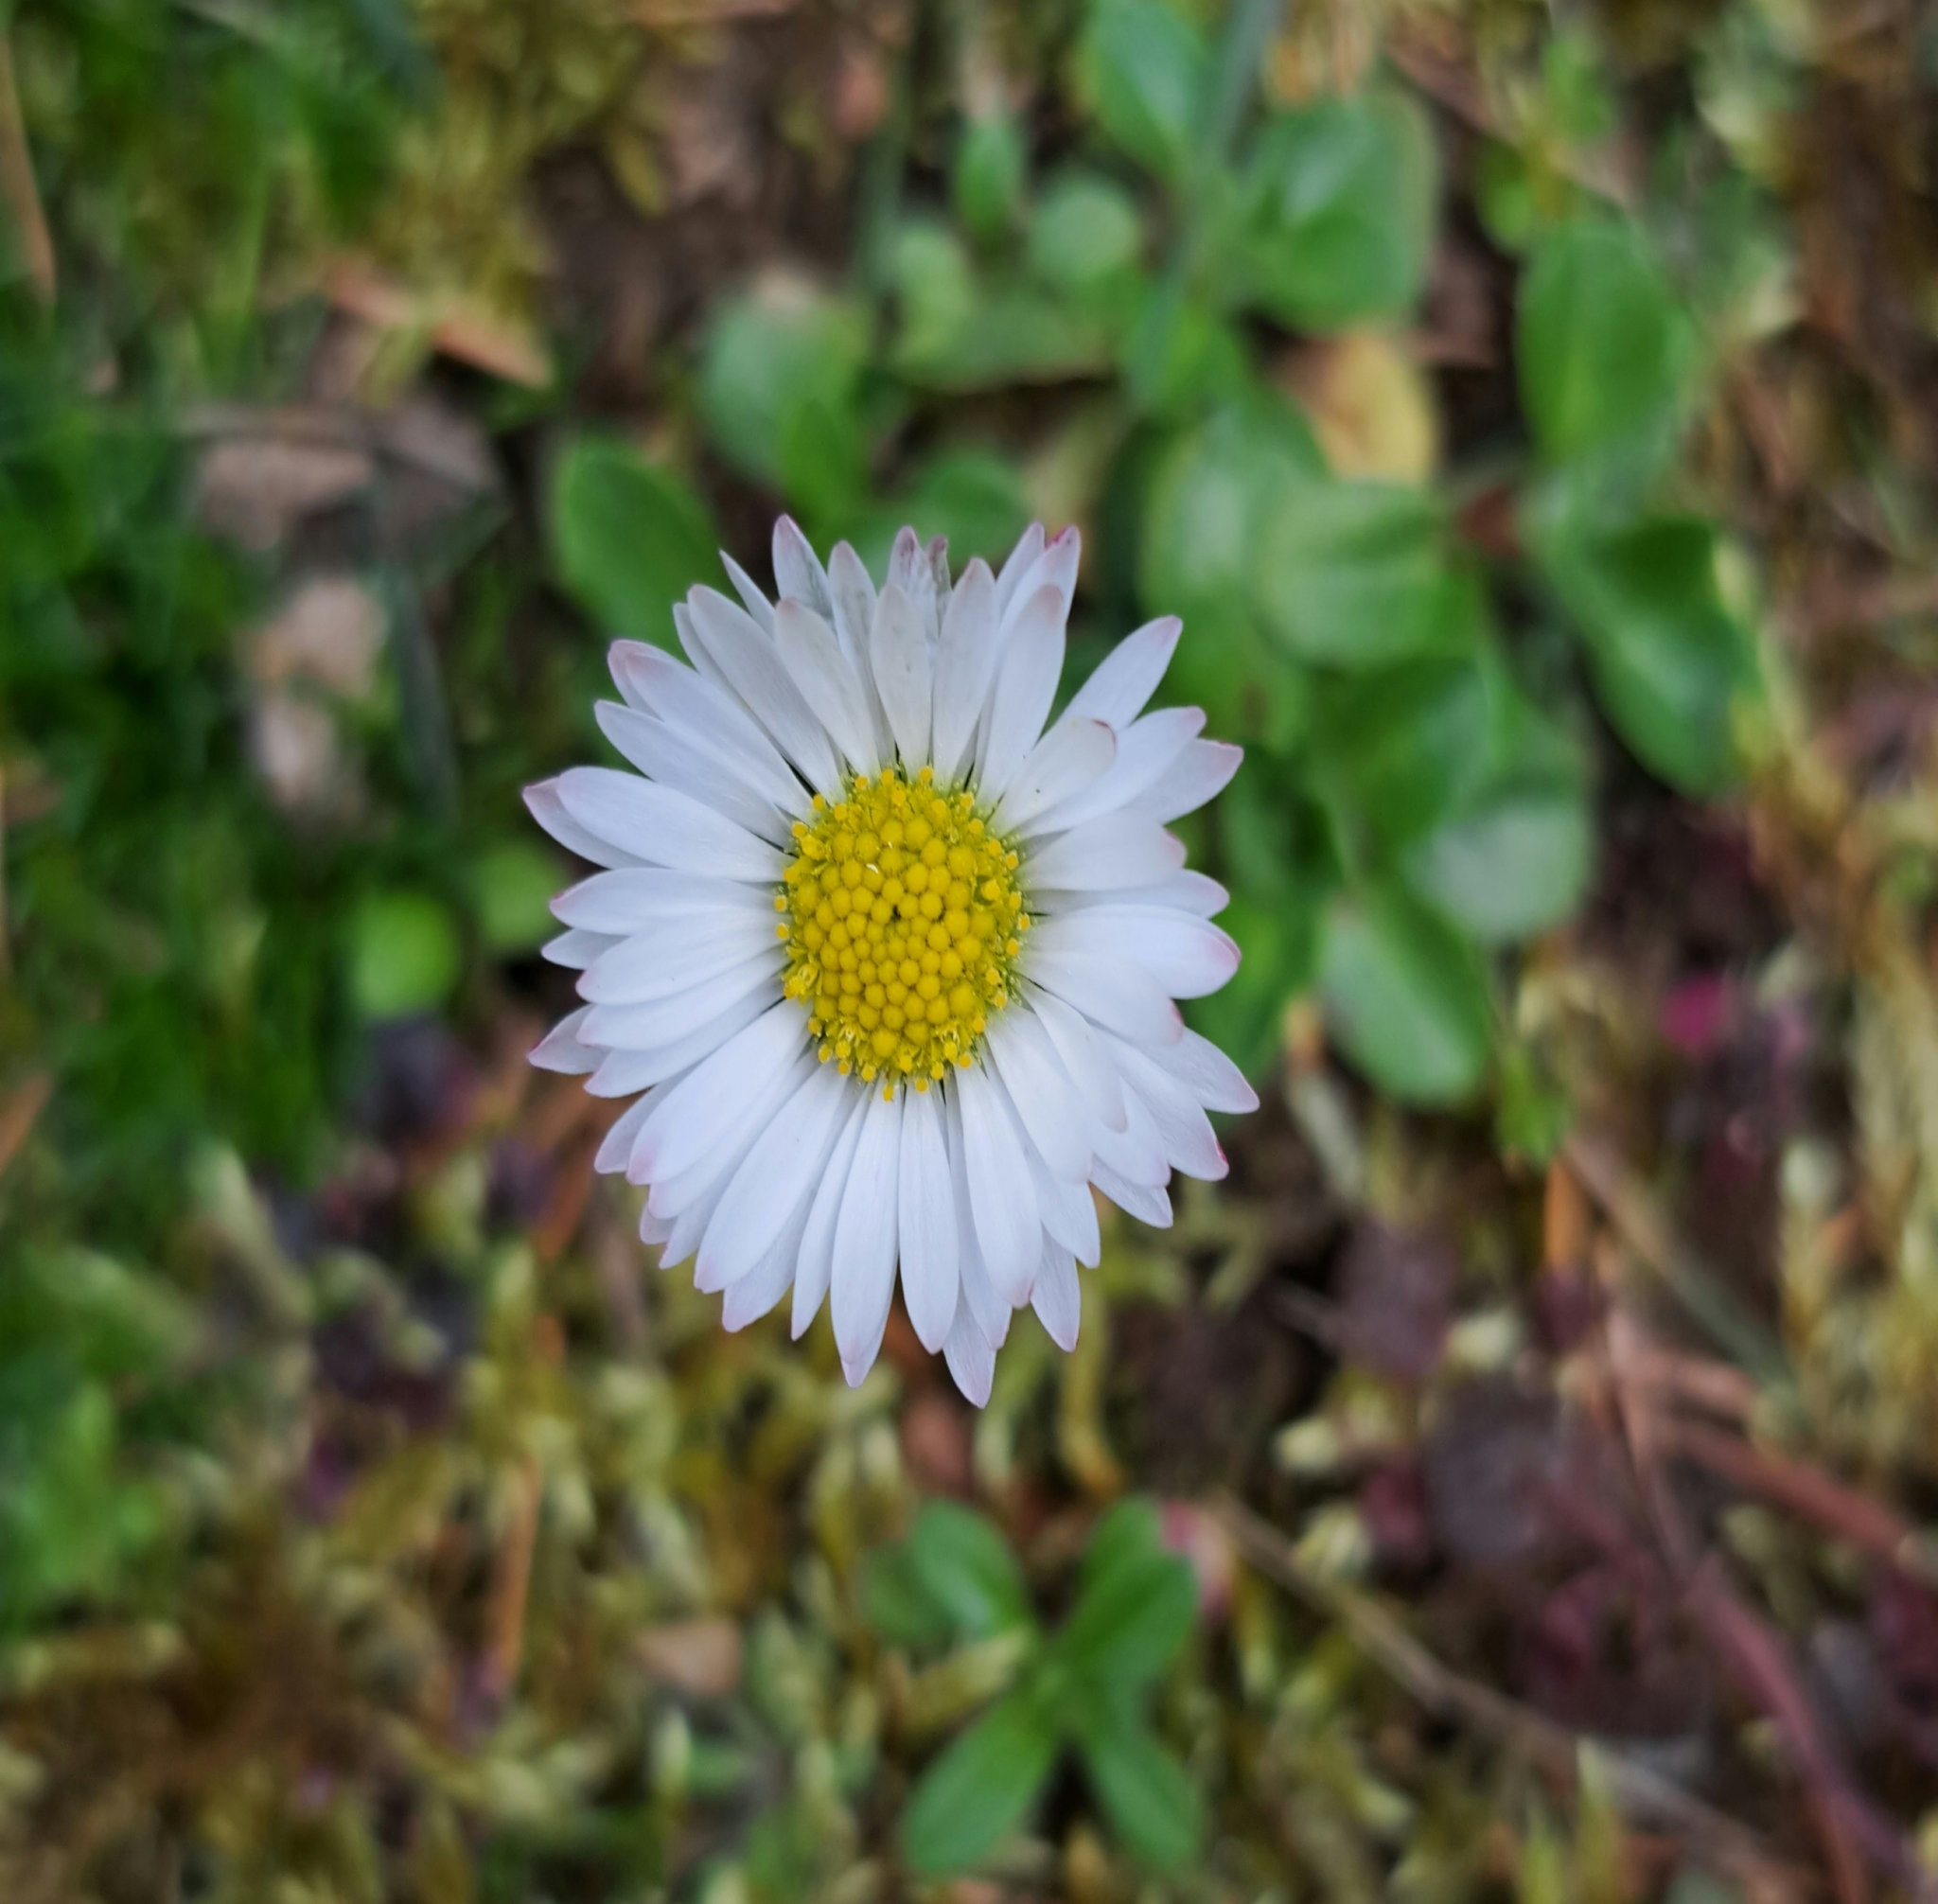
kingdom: Plantae
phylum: Tracheophyta
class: Magnoliopsida
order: Asterales
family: Asteraceae
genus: Bellis
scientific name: Bellis perennis
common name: Lawndaisy
